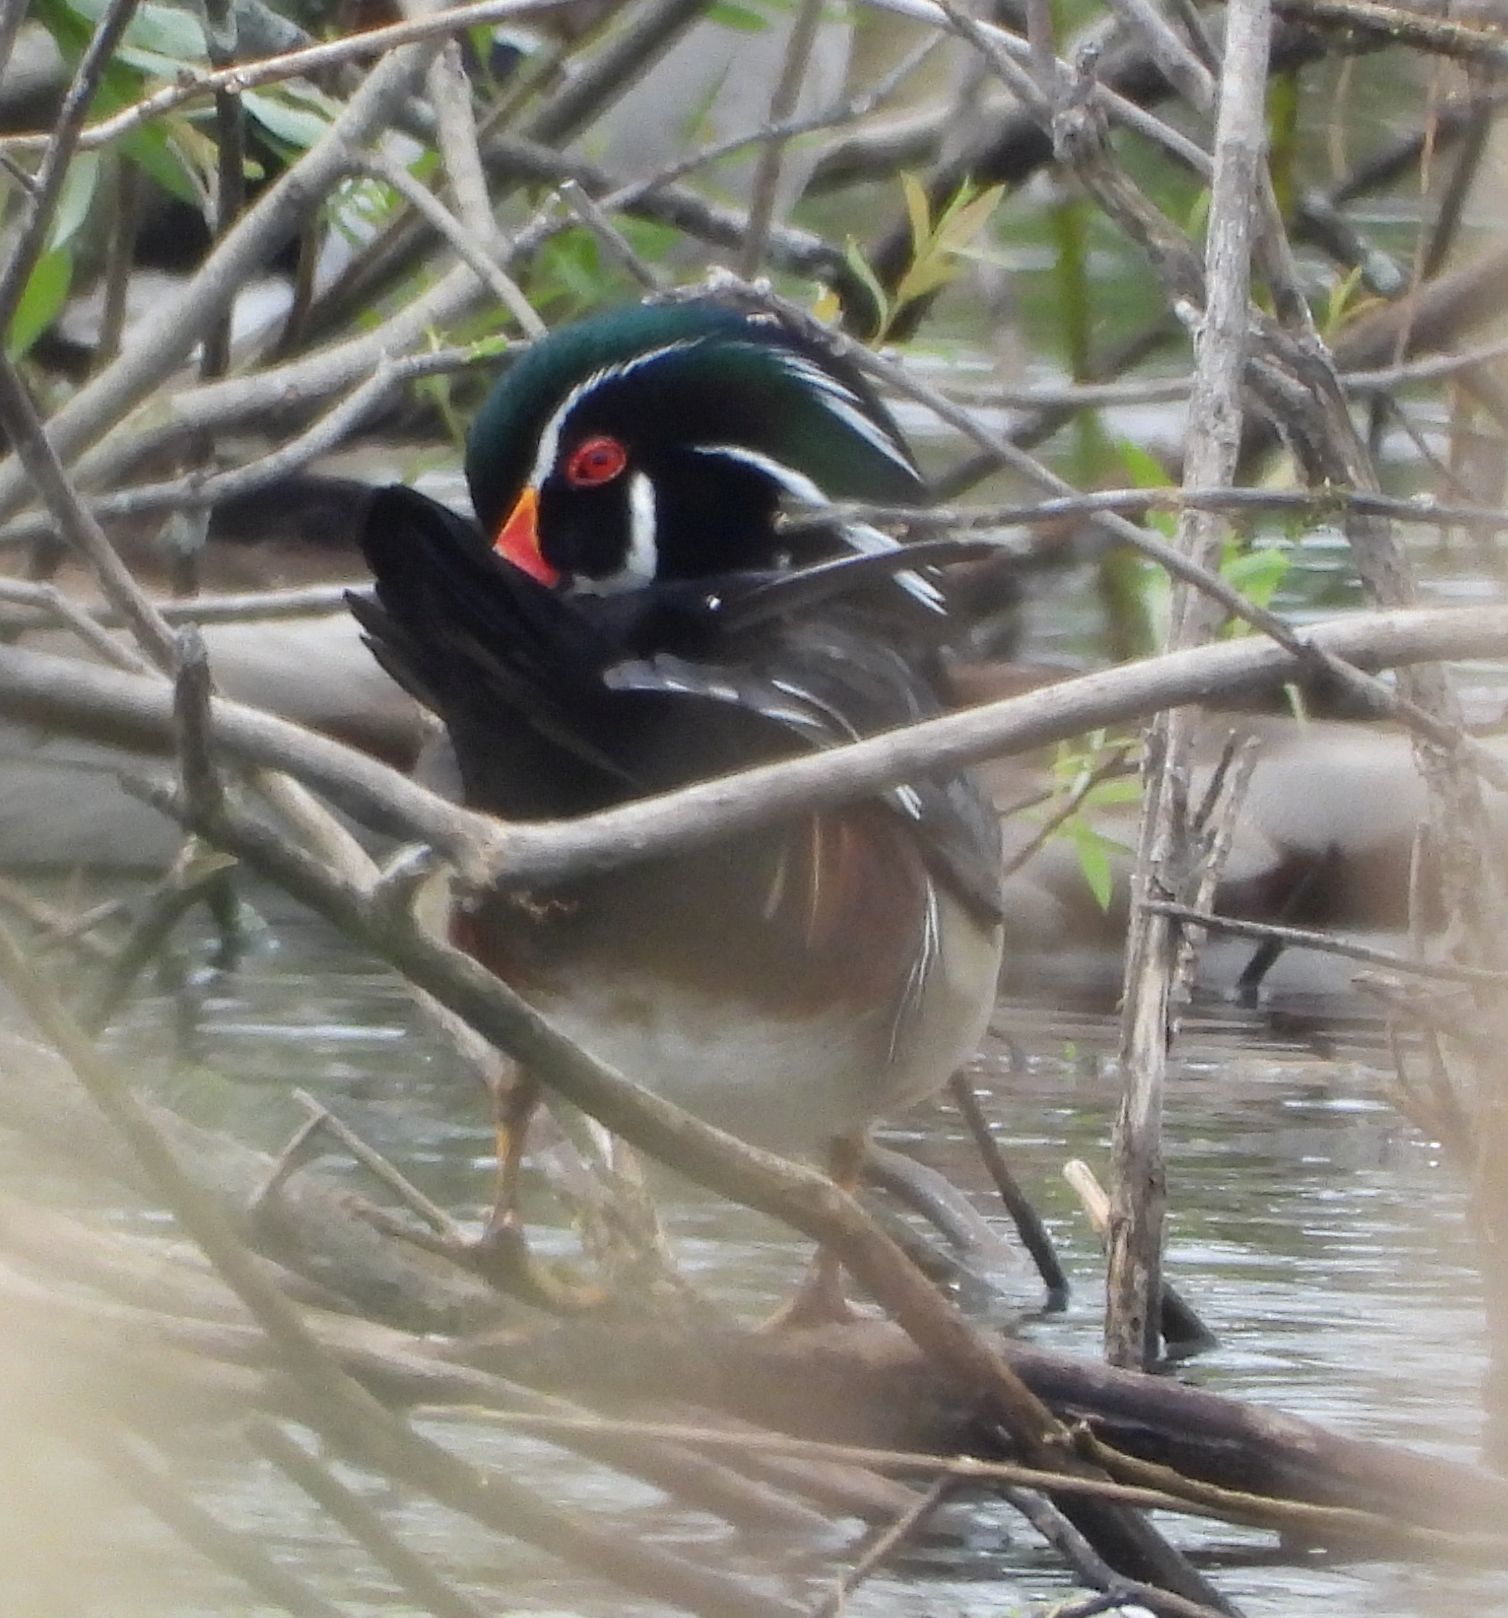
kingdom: Animalia
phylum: Chordata
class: Aves
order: Anseriformes
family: Anatidae
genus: Aix
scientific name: Aix sponsa
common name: Wood duck
